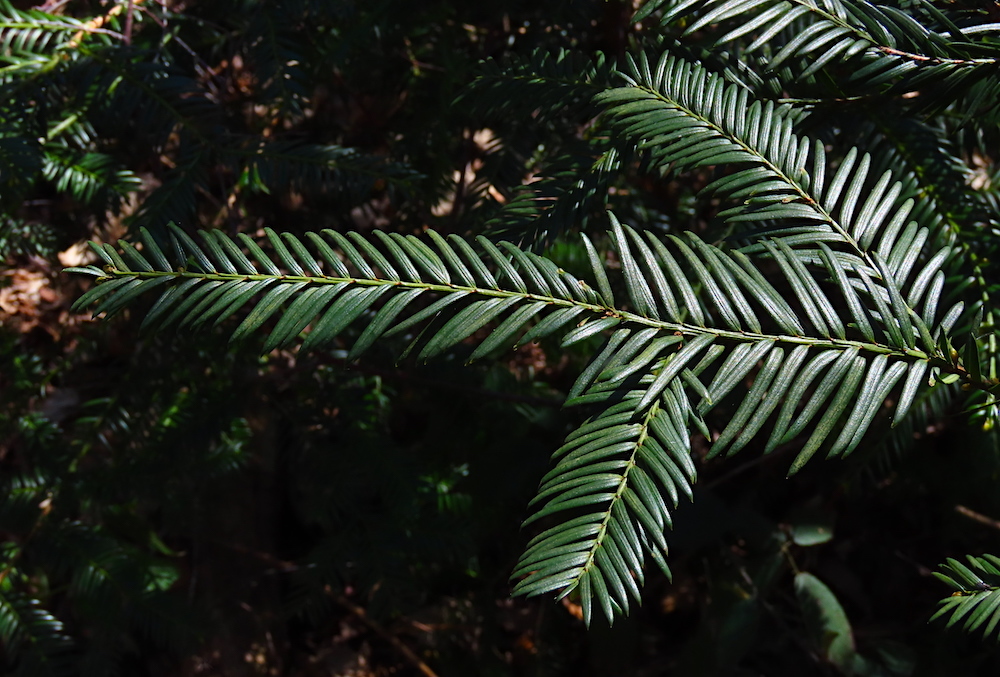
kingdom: Plantae
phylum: Tracheophyta
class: Pinopsida
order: Pinales
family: Taxaceae
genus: Taxus
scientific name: Taxus baccata
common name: Yew
